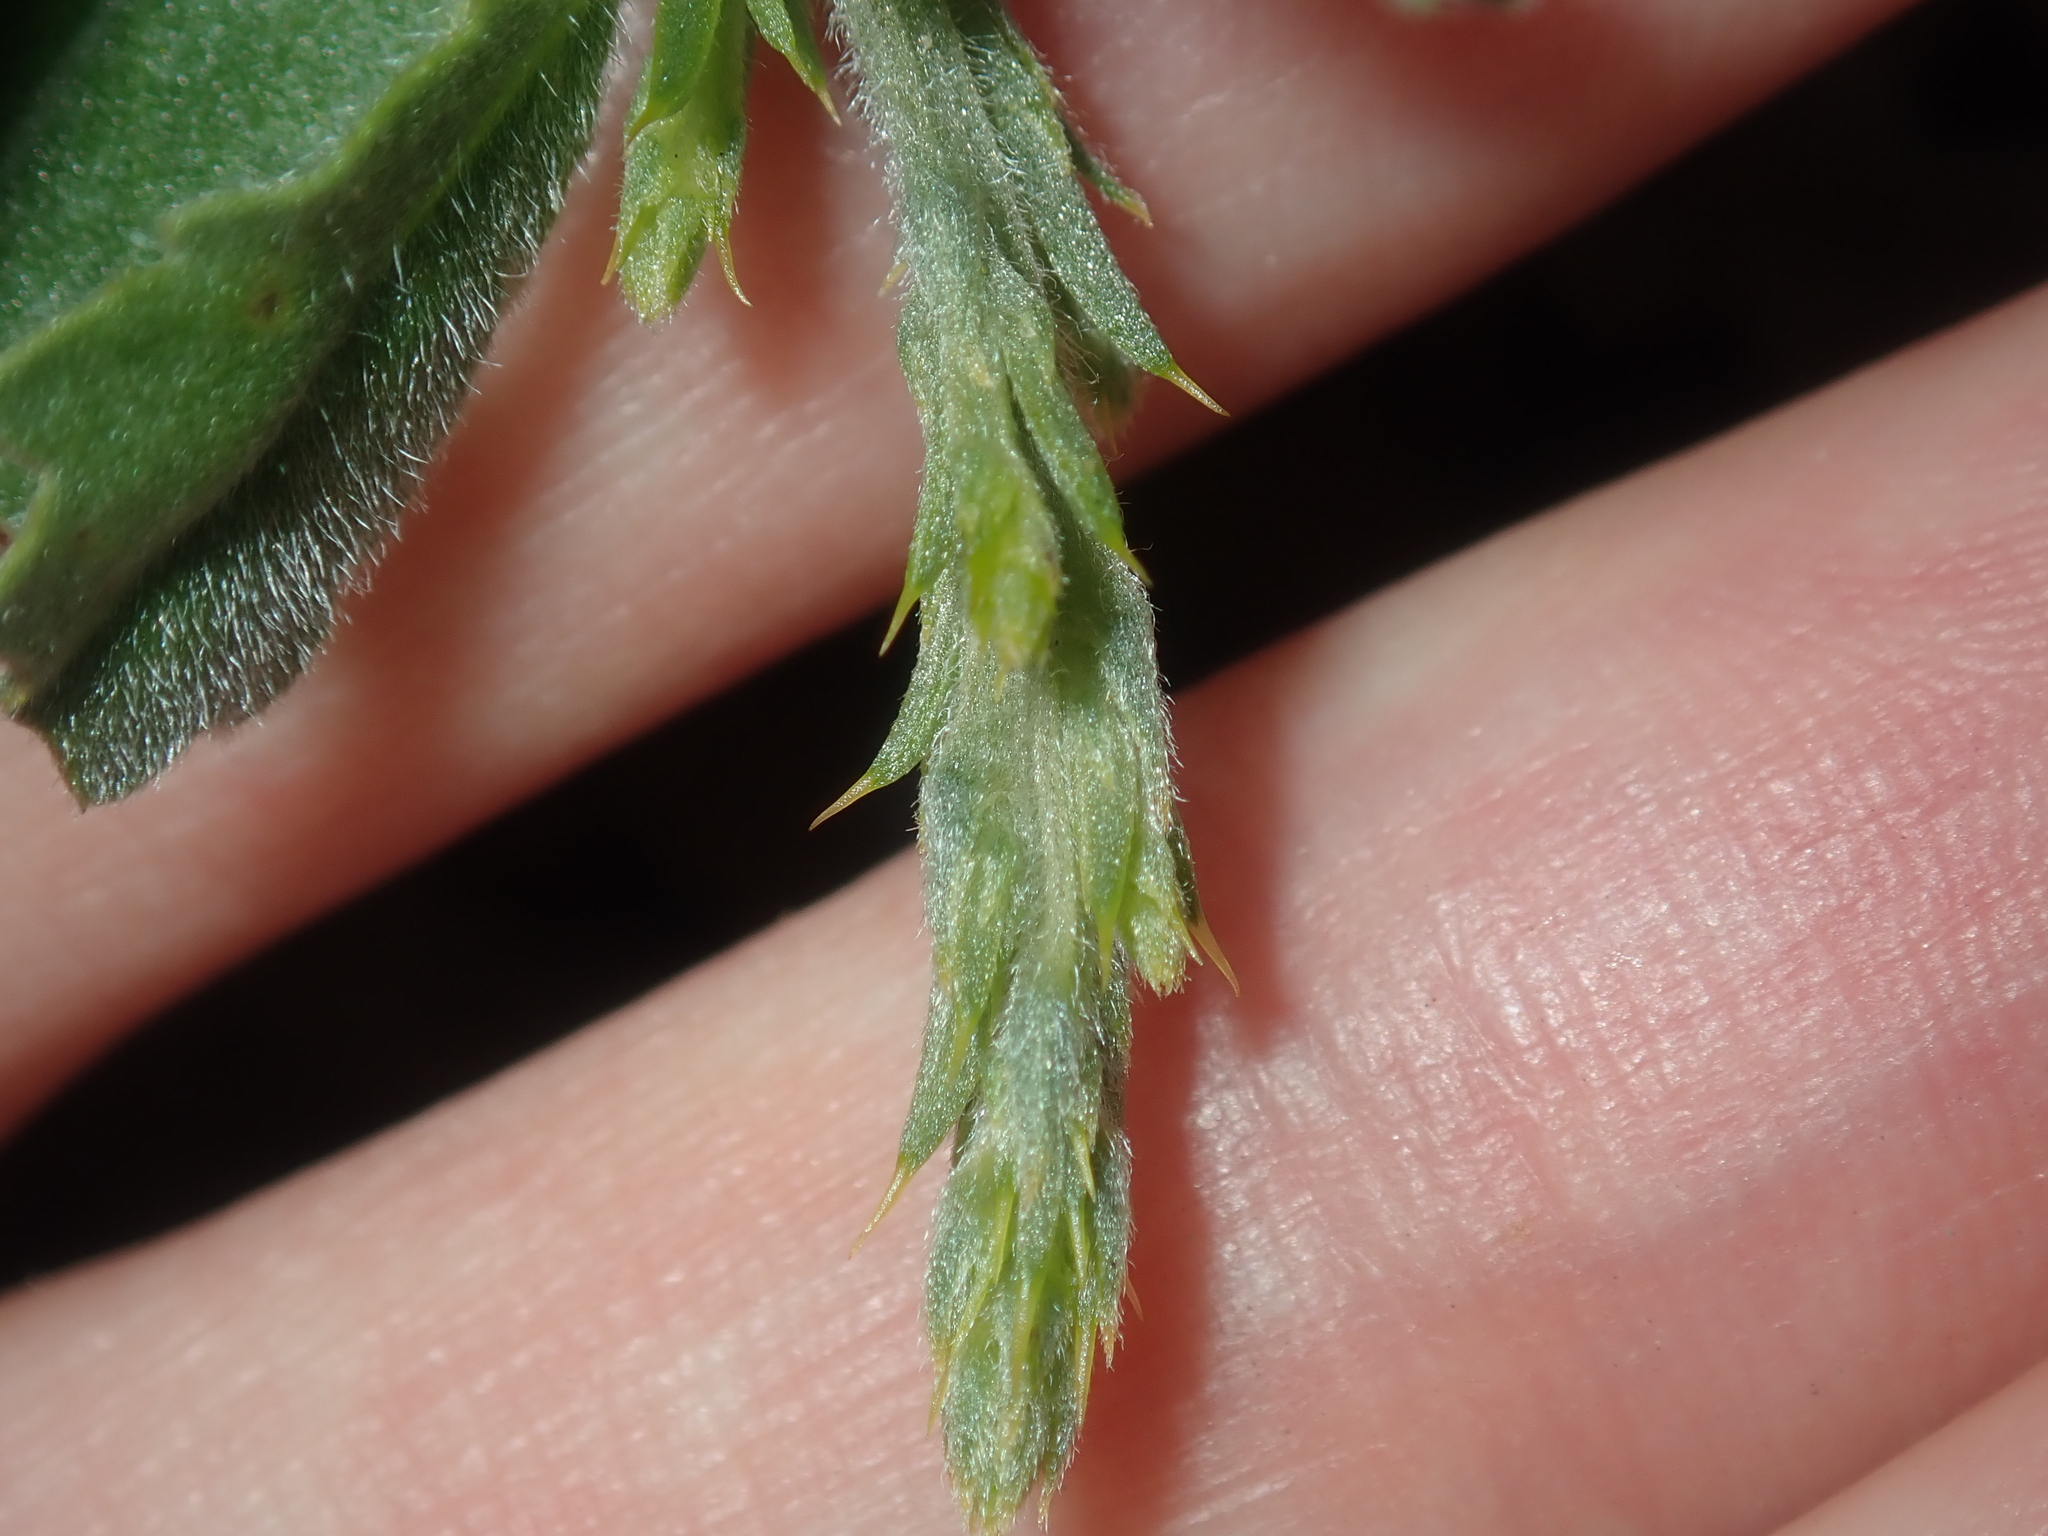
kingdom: Plantae
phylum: Tracheophyta
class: Magnoliopsida
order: Fabales
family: Fabaceae
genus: Jacksonia
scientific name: Jacksonia calcicola
